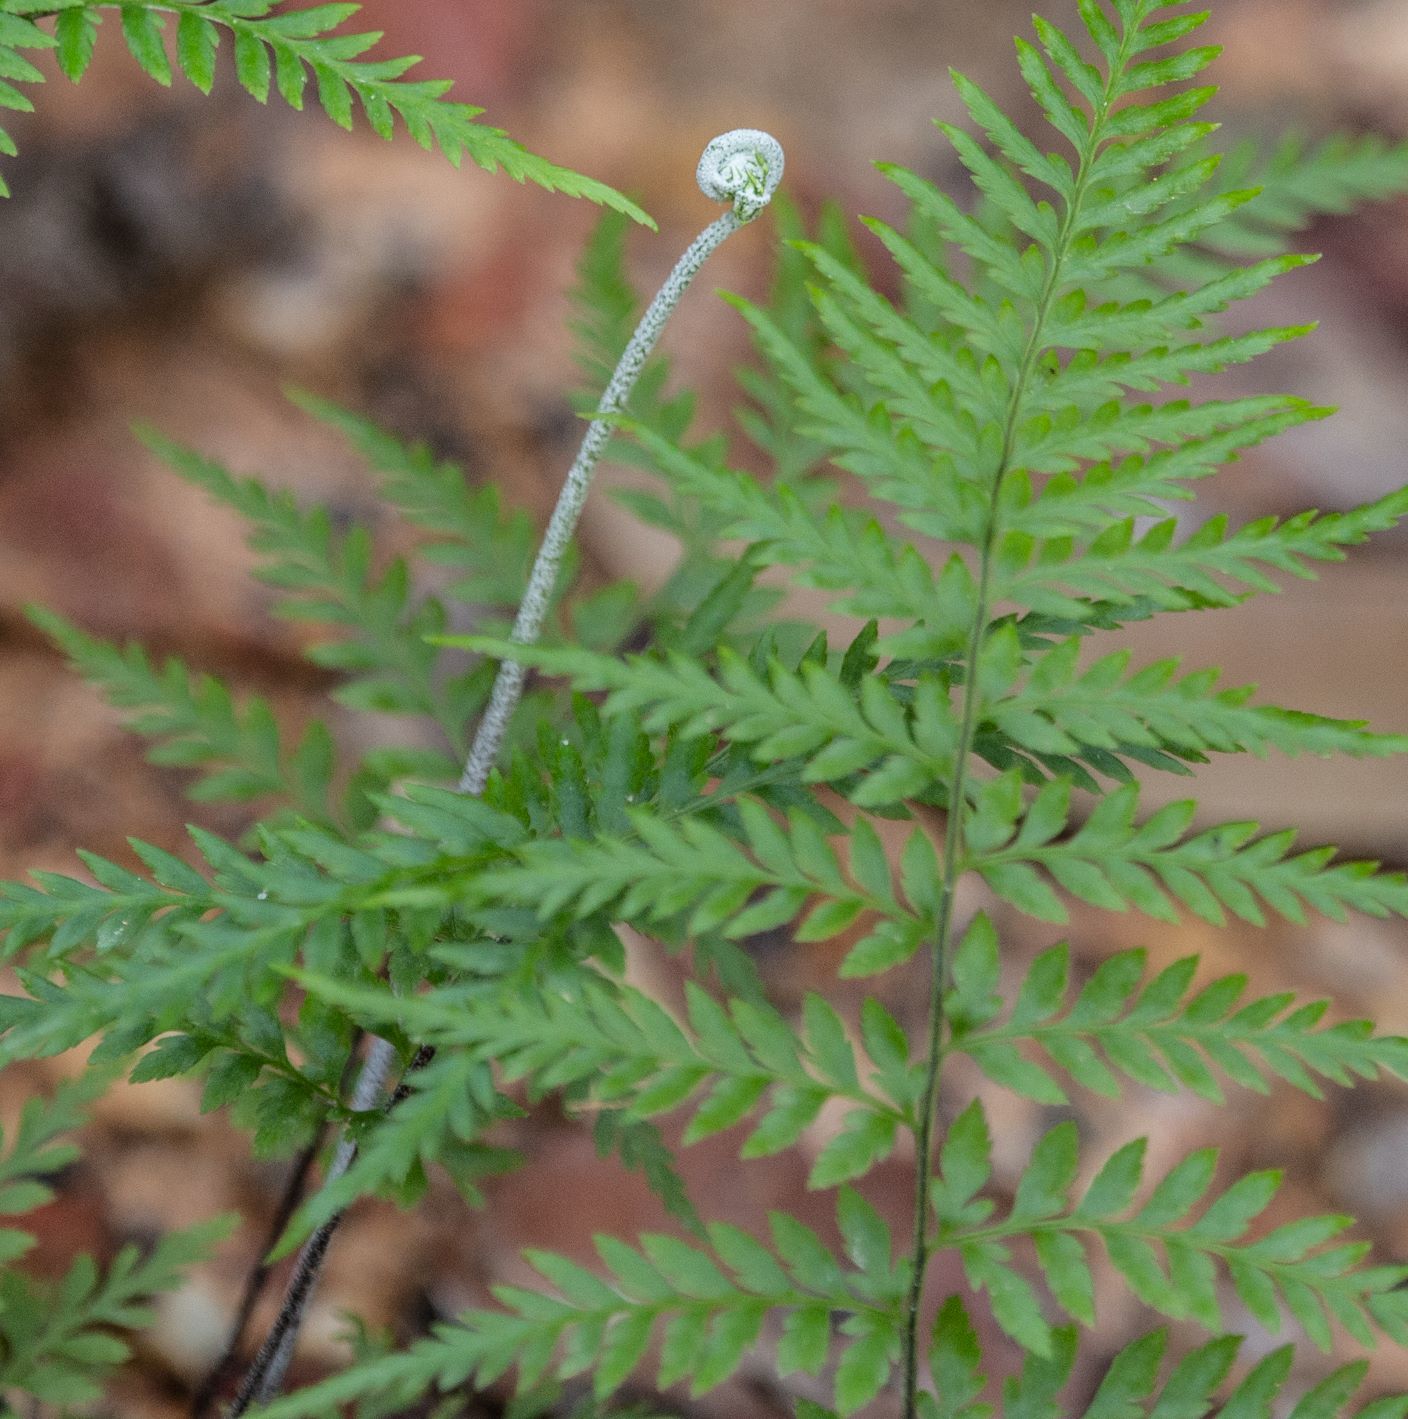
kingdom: Plantae
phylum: Tracheophyta
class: Polypodiopsida
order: Polypodiales
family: Pteridaceae
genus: Pityrogramma
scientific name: Pityrogramma calomelanos
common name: Dixie silverback fern
